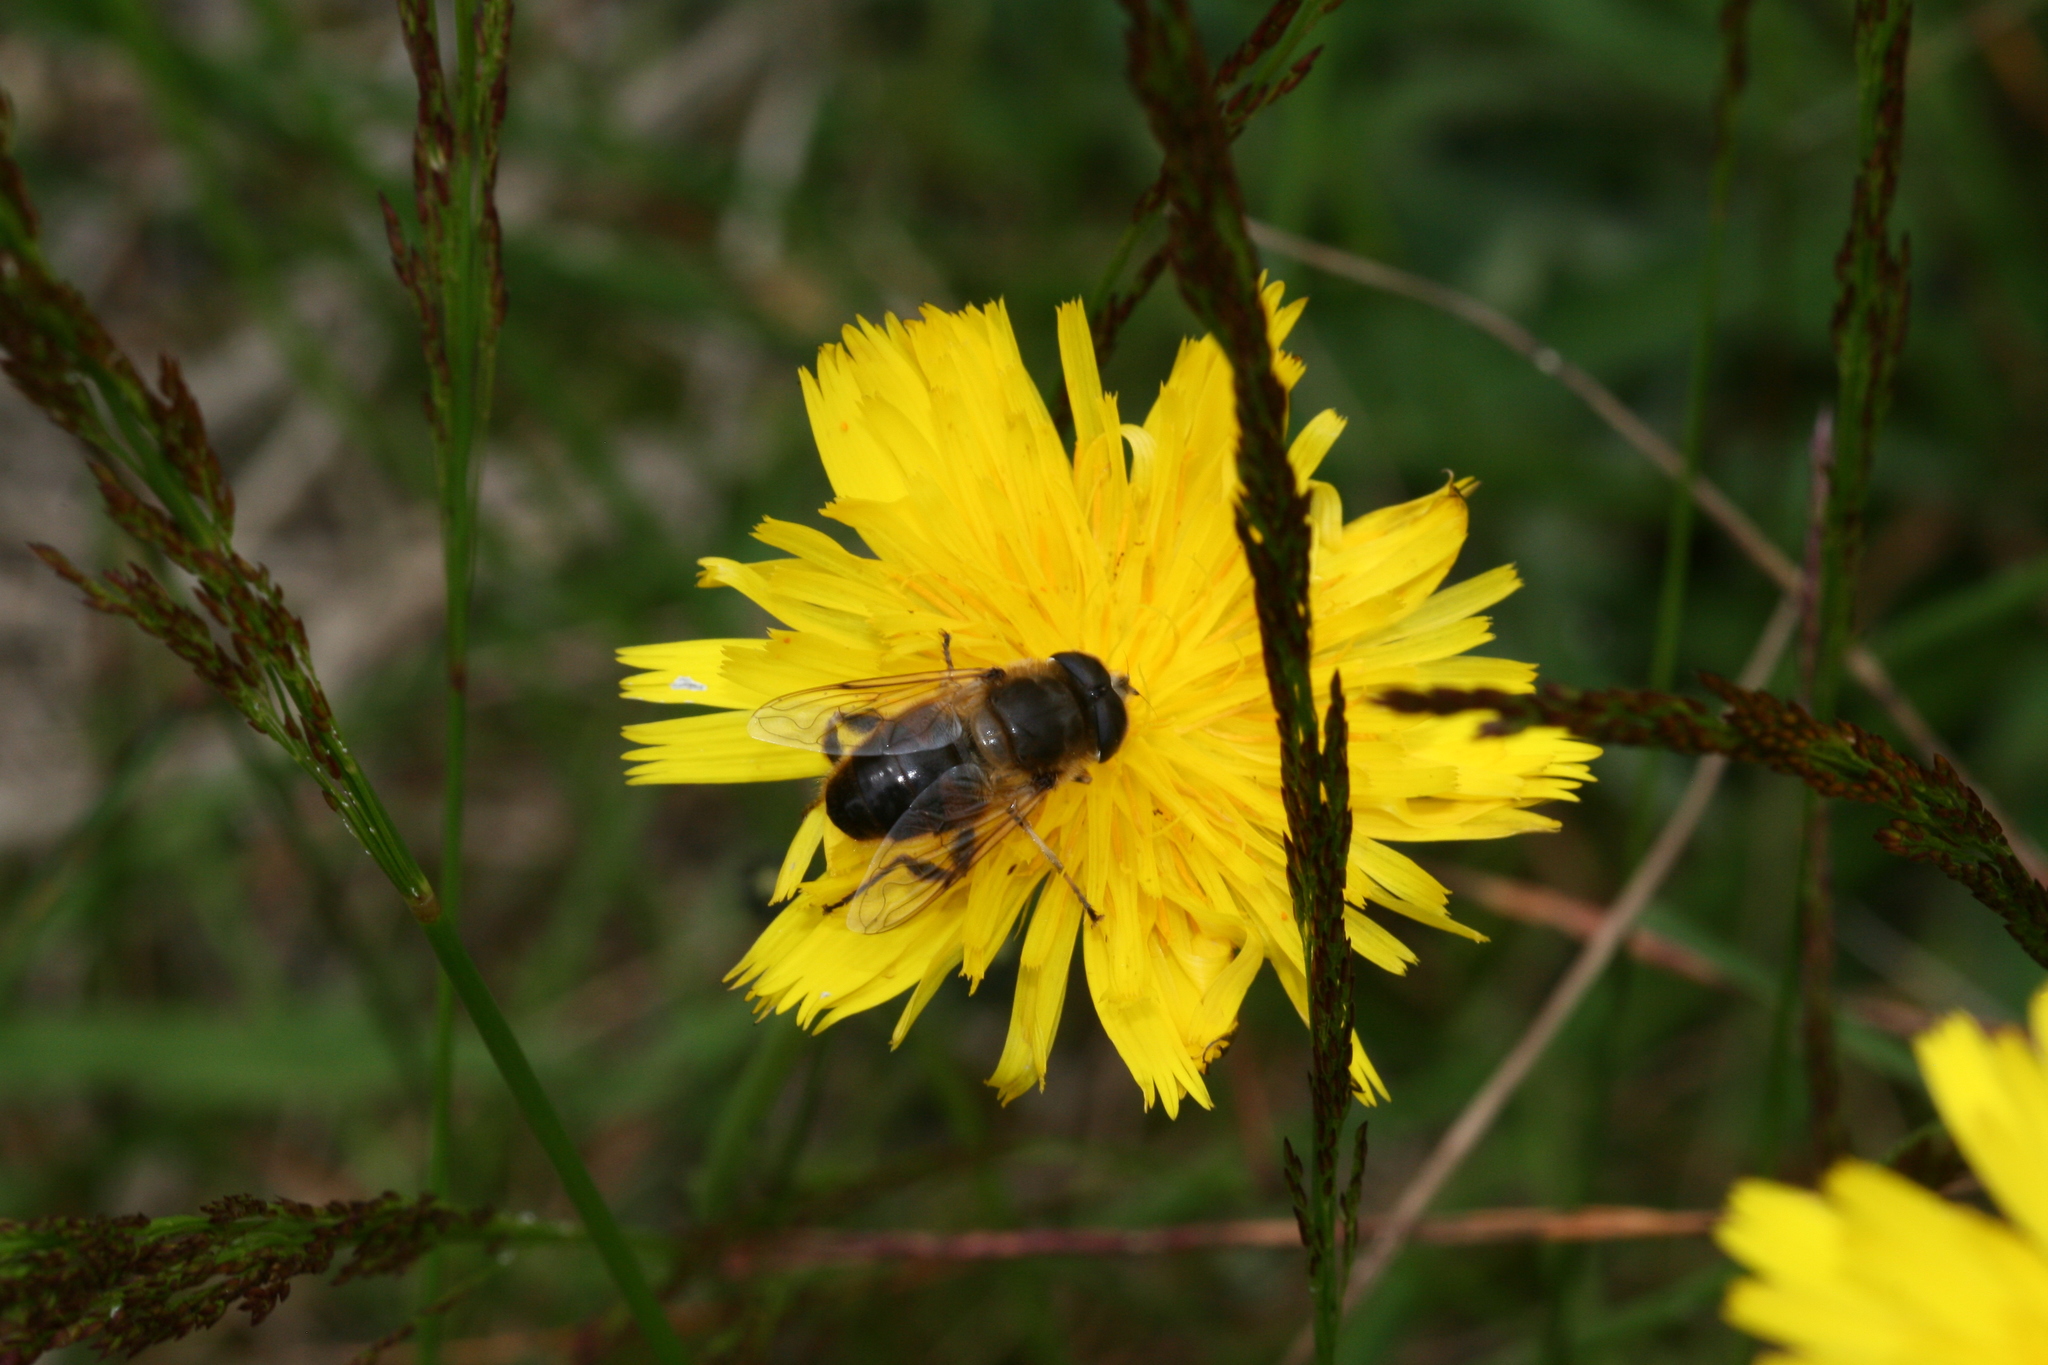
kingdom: Animalia
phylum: Arthropoda
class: Insecta
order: Diptera
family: Syrphidae
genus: Eristalis
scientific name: Eristalis tenax
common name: Drone fly
